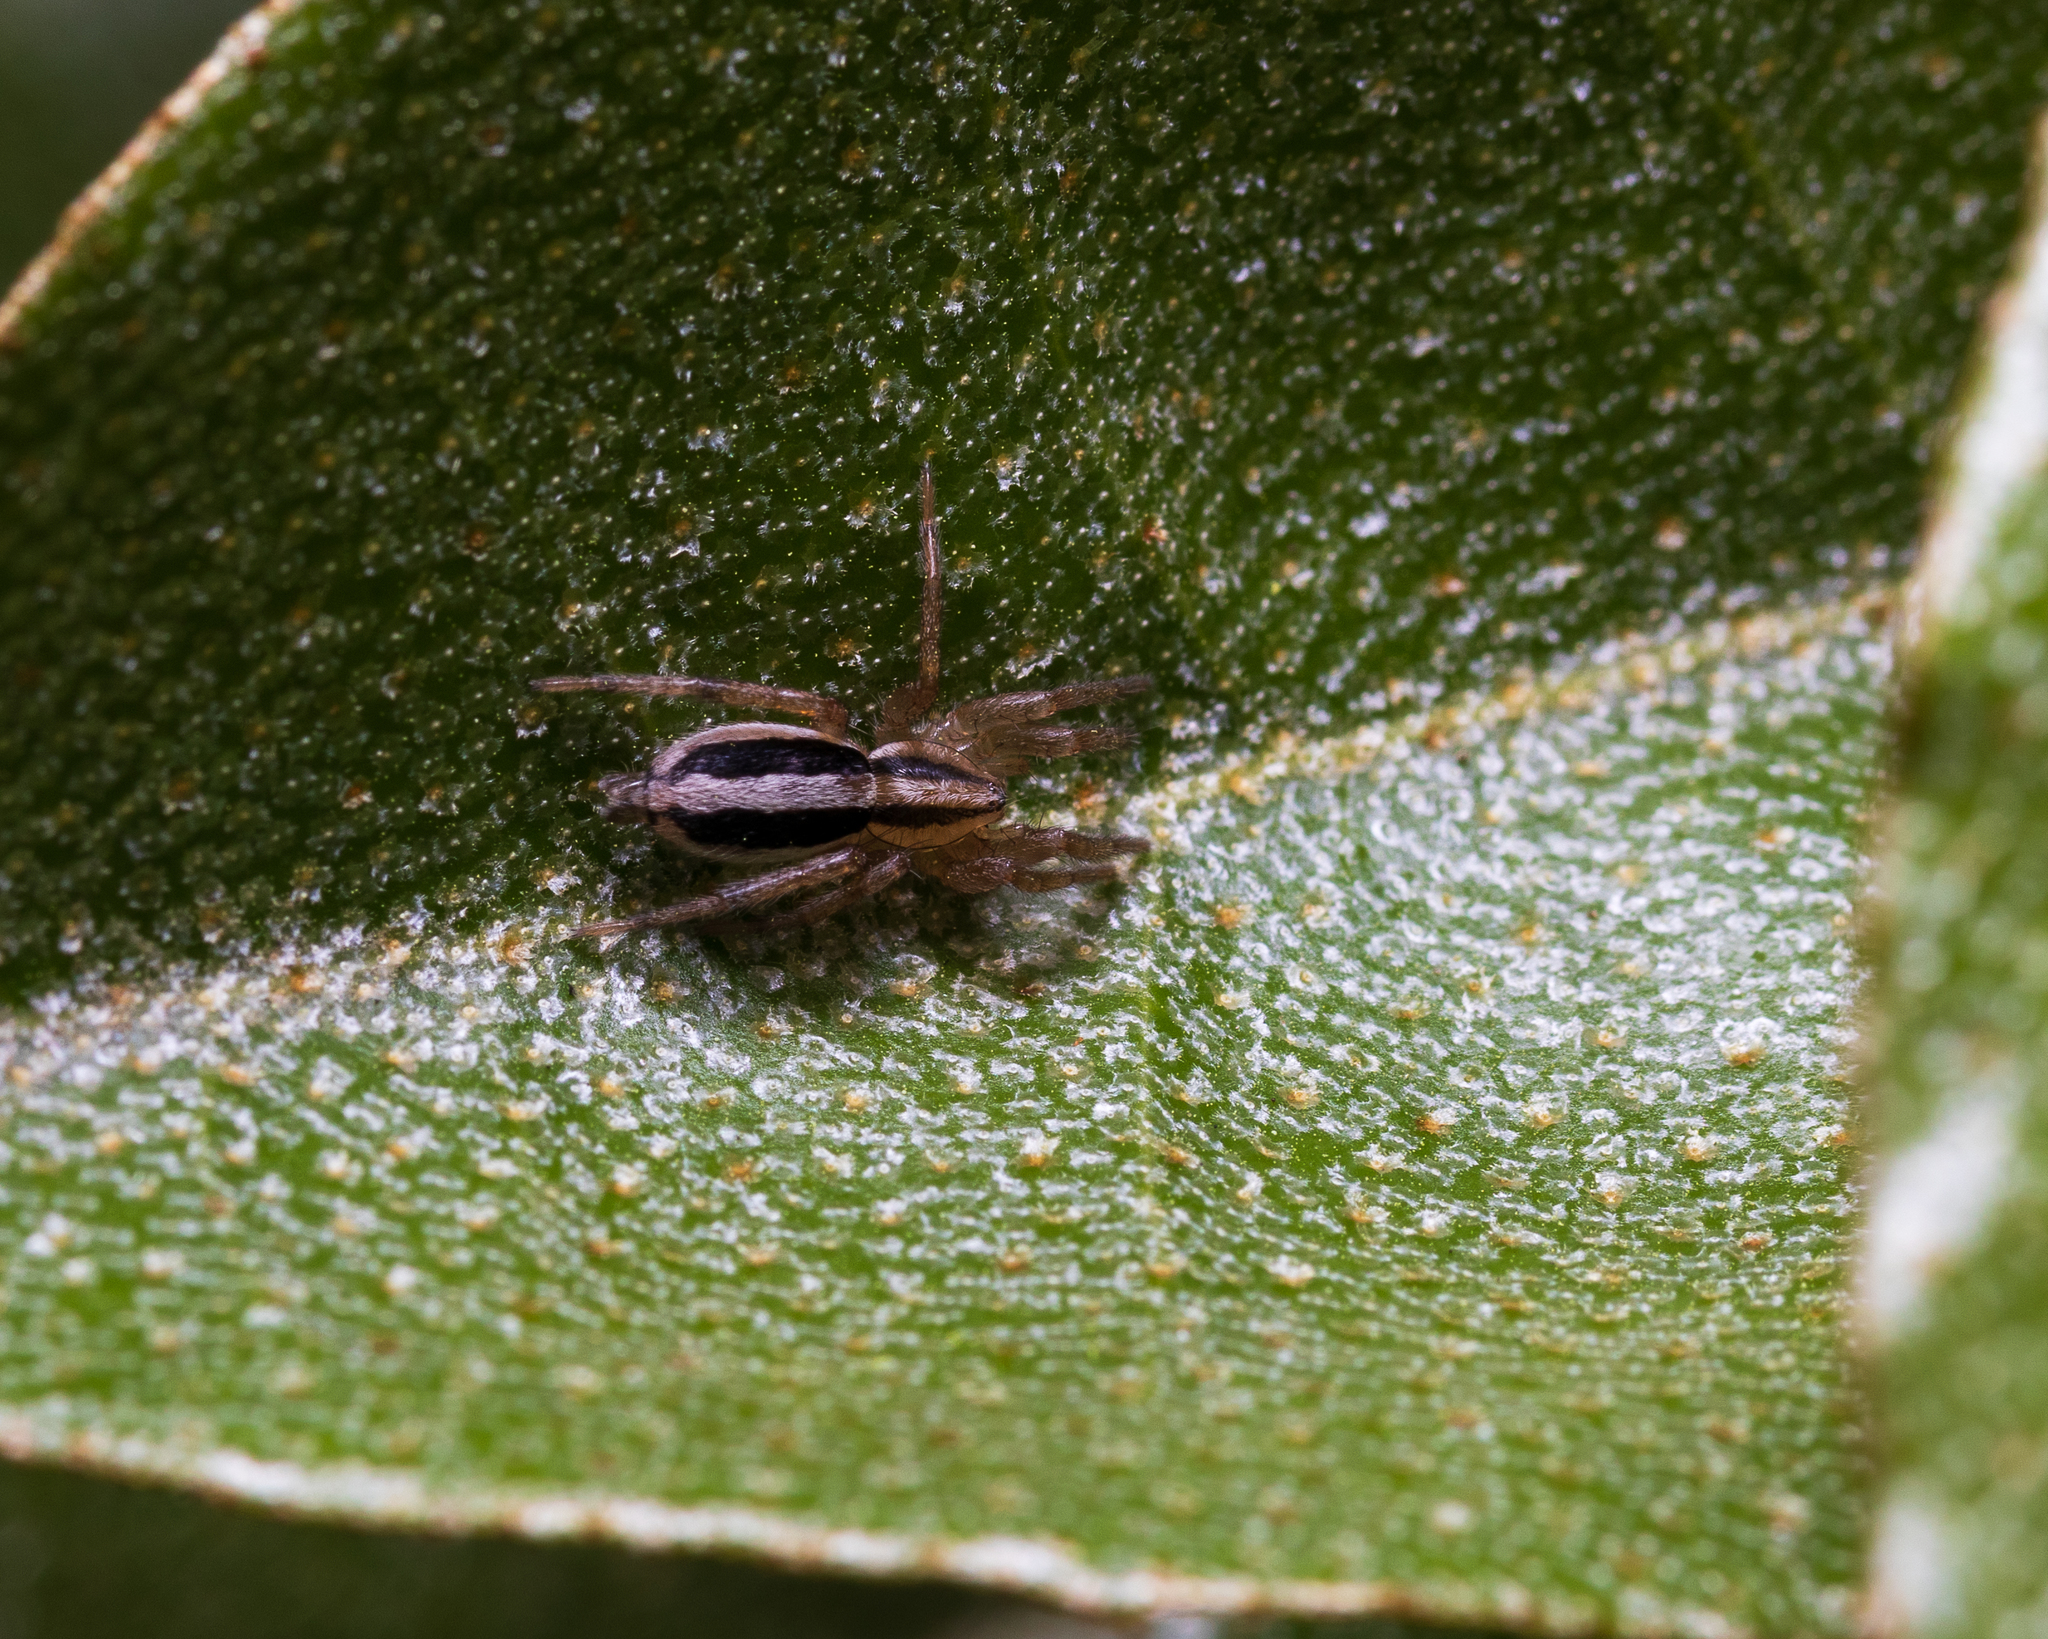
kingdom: Animalia
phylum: Arthropoda
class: Arachnida
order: Araneae
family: Gnaphosidae
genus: Cesonia
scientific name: Cesonia bilineata
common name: Two-lined stealthy ground spider
